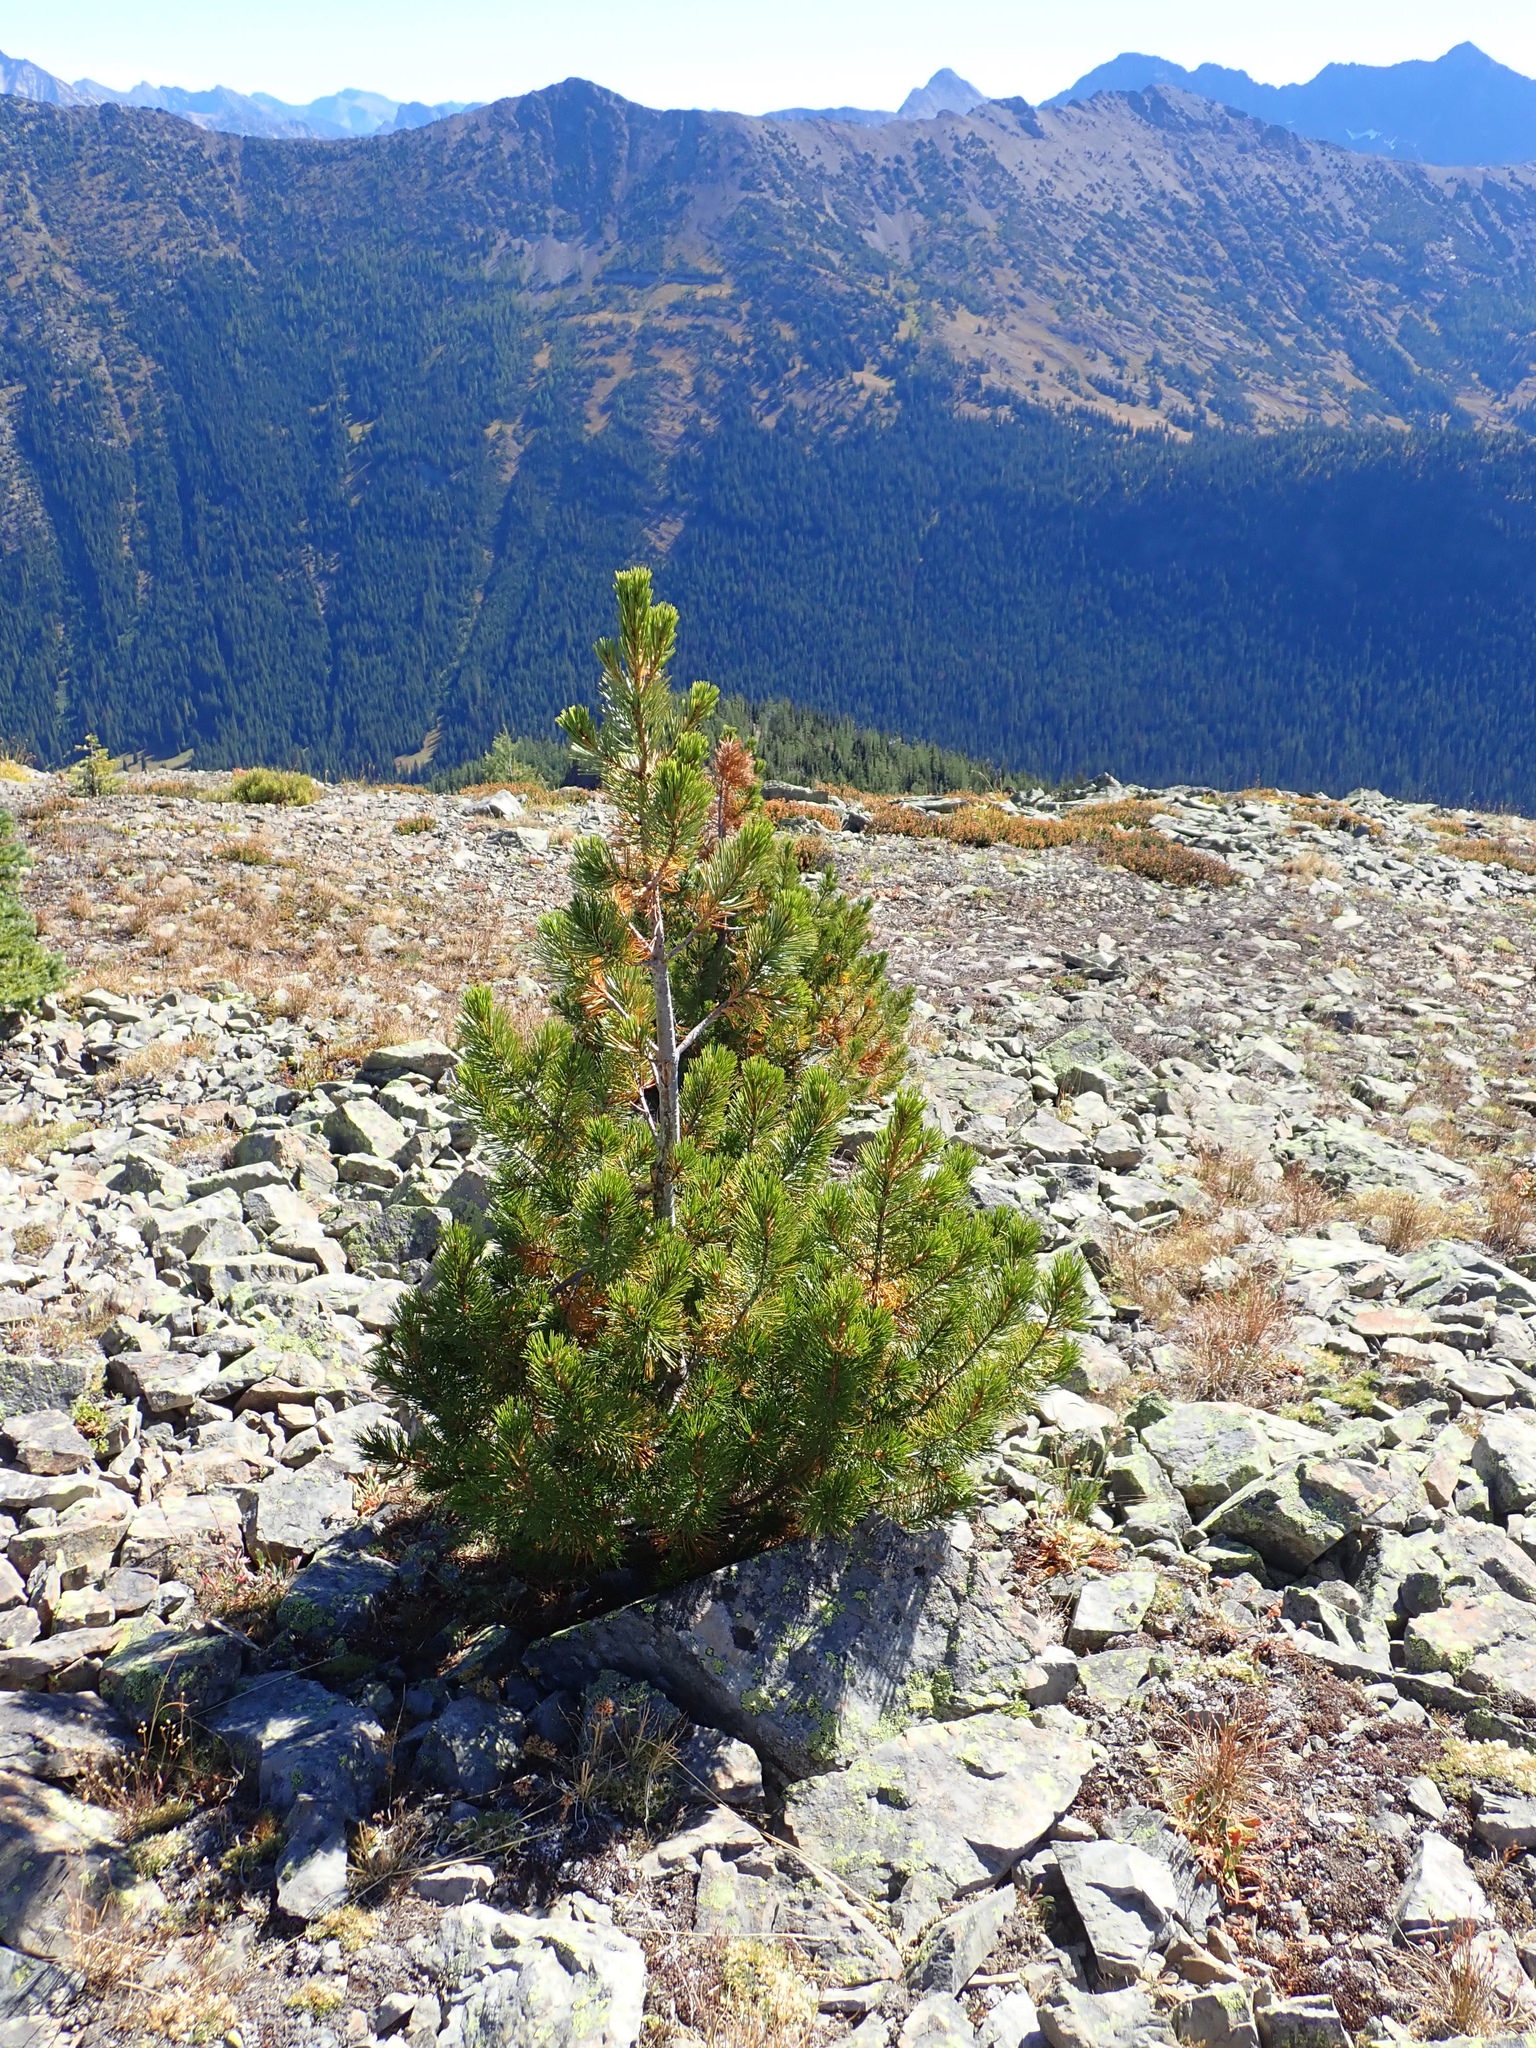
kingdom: Plantae
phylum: Tracheophyta
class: Pinopsida
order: Pinales
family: Pinaceae
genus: Pinus
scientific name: Pinus albicaulis
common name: Whitebark pine
